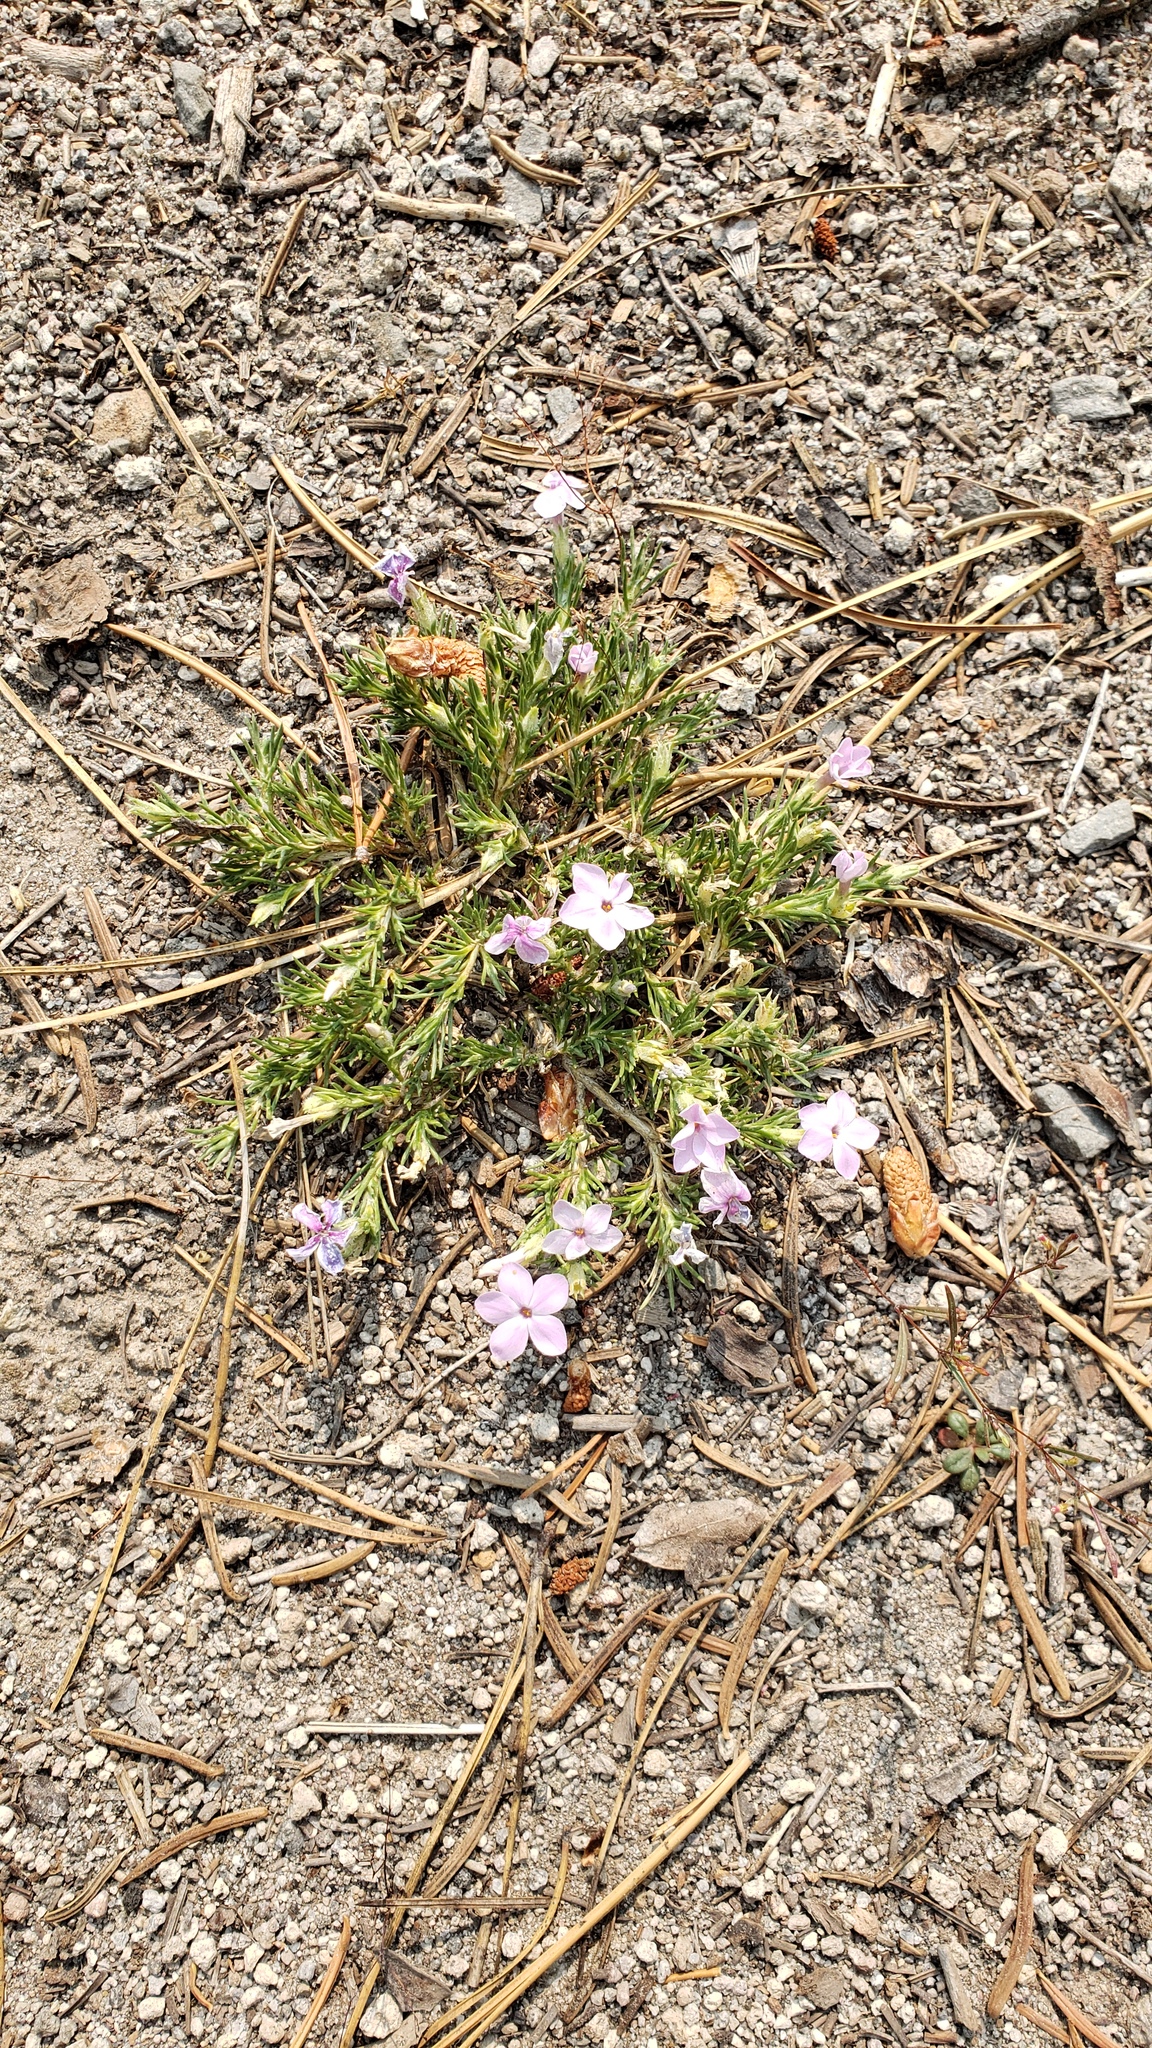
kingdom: Plantae
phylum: Tracheophyta
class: Magnoliopsida
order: Ericales
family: Polemoniaceae
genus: Phlox
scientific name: Phlox diffusa
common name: Mat phlox
